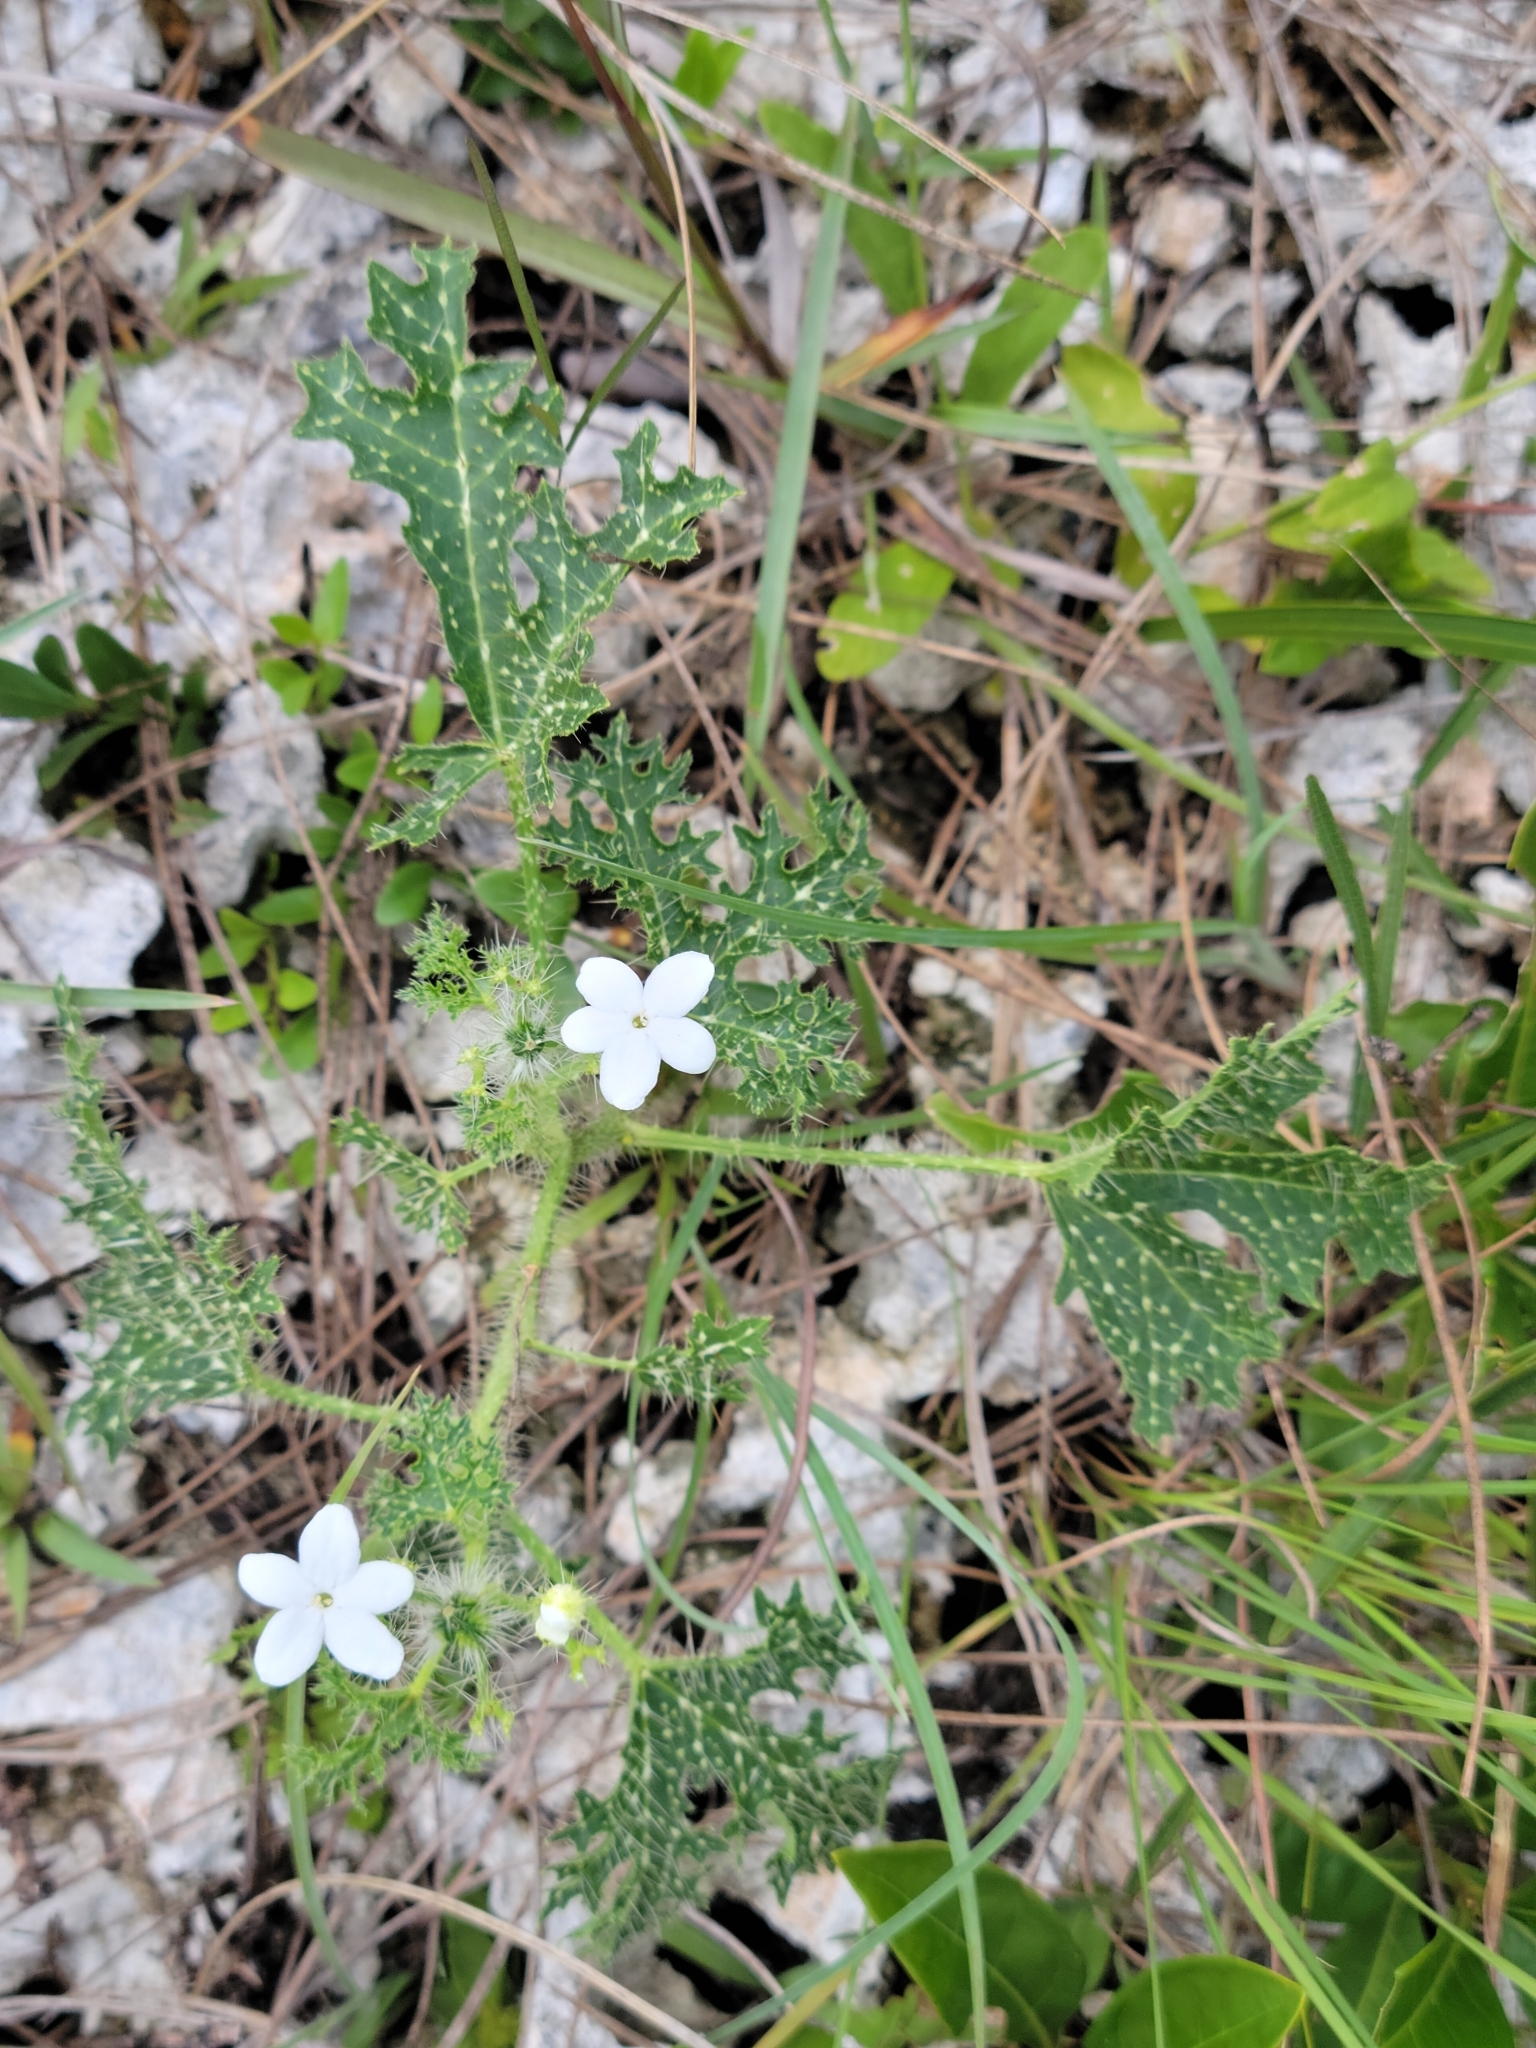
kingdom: Plantae
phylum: Tracheophyta
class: Magnoliopsida
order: Malpighiales
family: Euphorbiaceae
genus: Cnidoscolus
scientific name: Cnidoscolus stimulosus
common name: Bull-nettle
